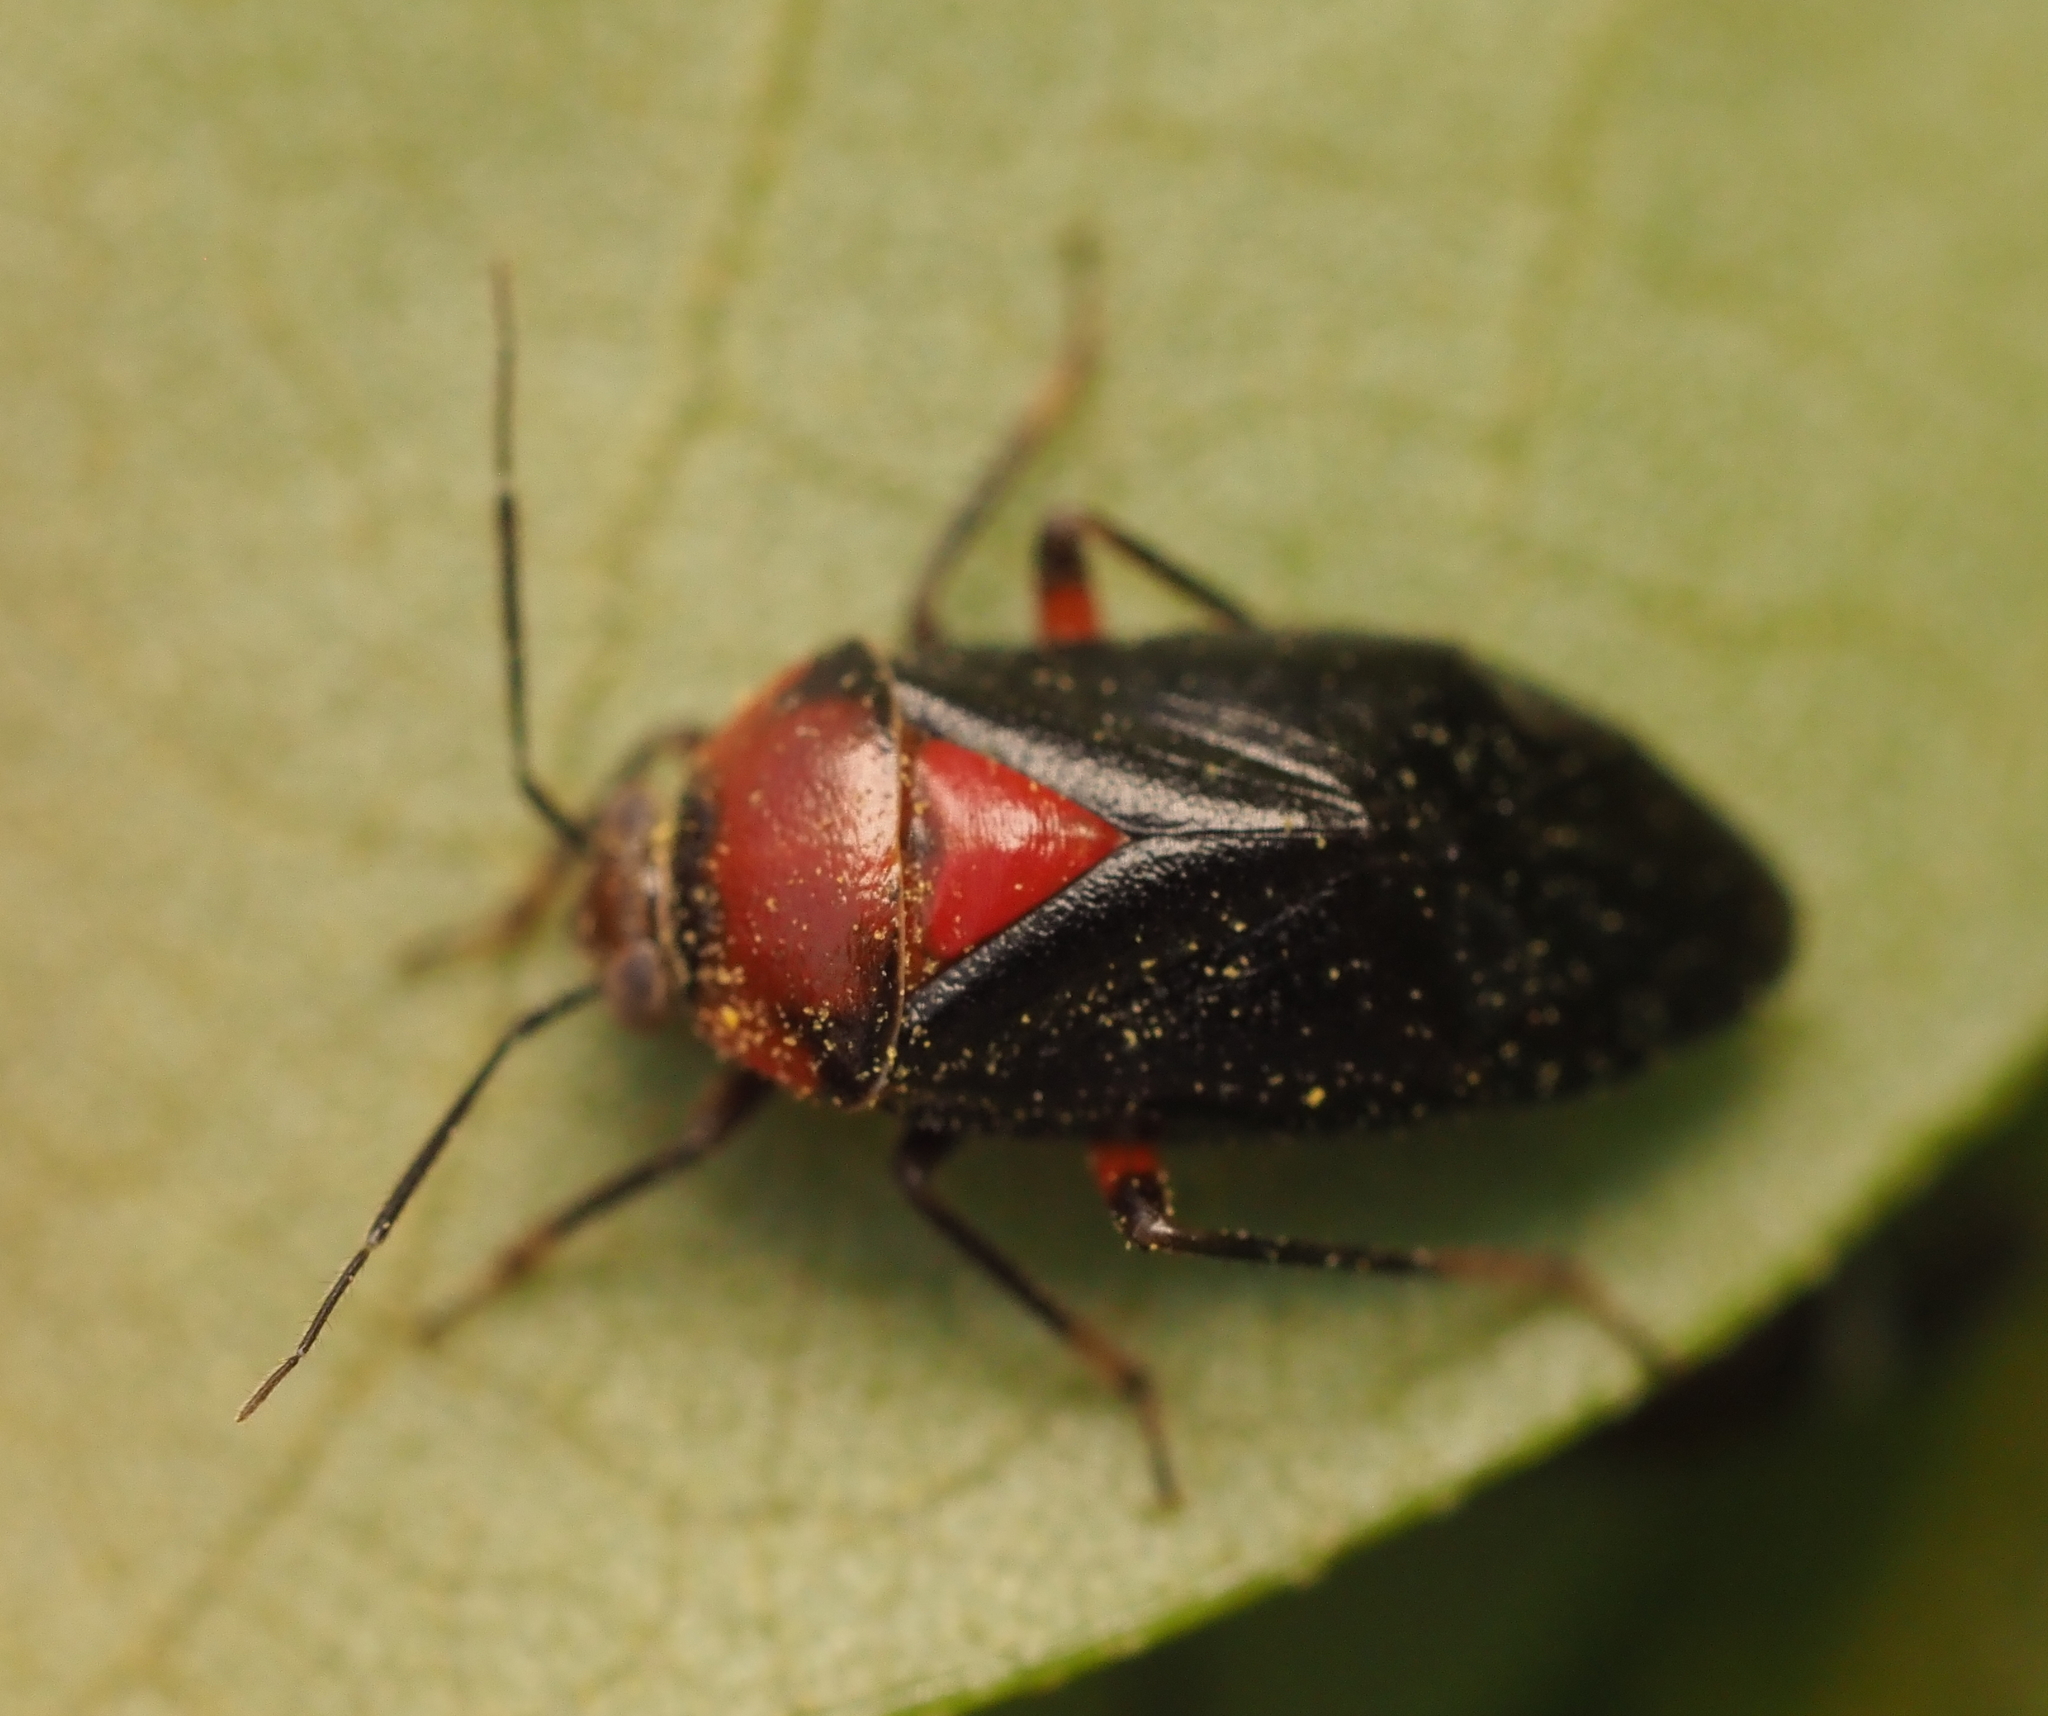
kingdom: Animalia
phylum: Arthropoda
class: Insecta
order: Hemiptera
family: Miridae
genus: Neocapsus
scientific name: Neocapsus cuneatus
